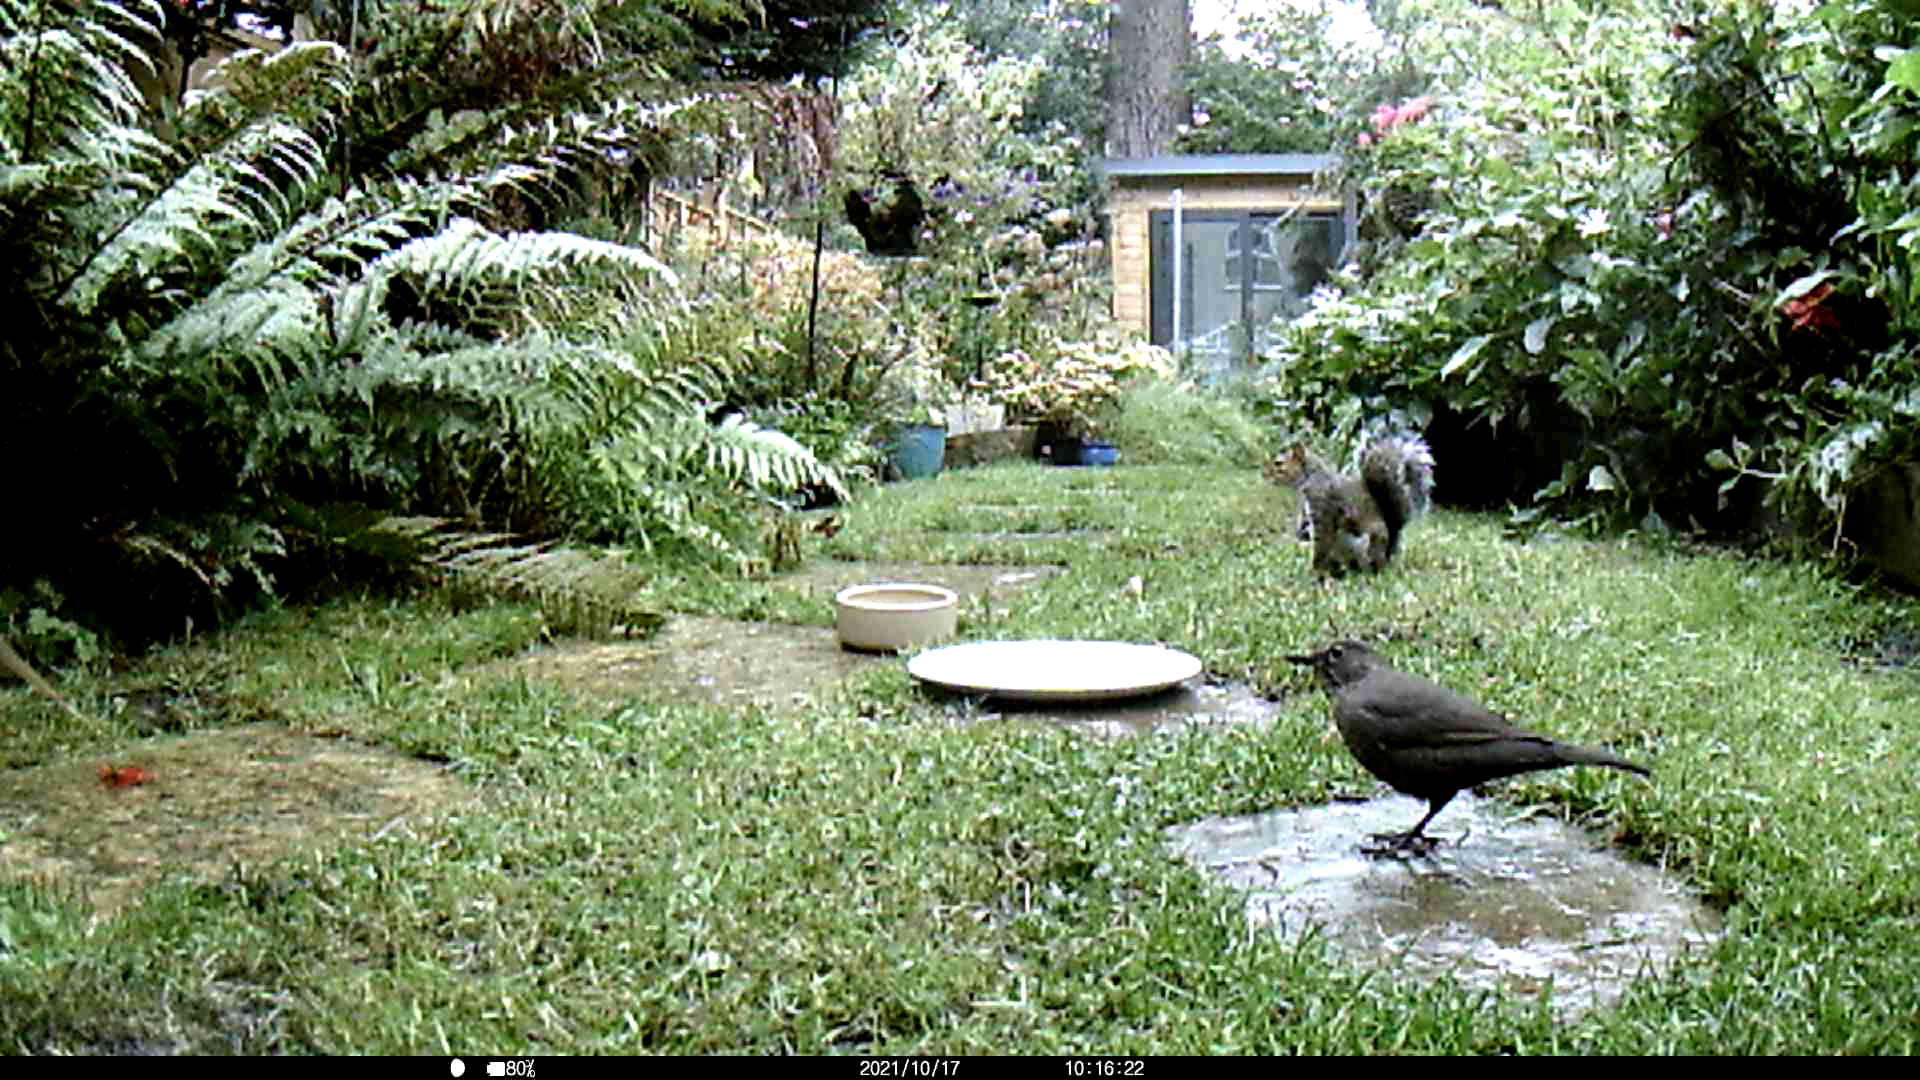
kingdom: Animalia
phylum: Chordata
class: Aves
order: Passeriformes
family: Turdidae
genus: Turdus
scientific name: Turdus merula
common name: Common blackbird
